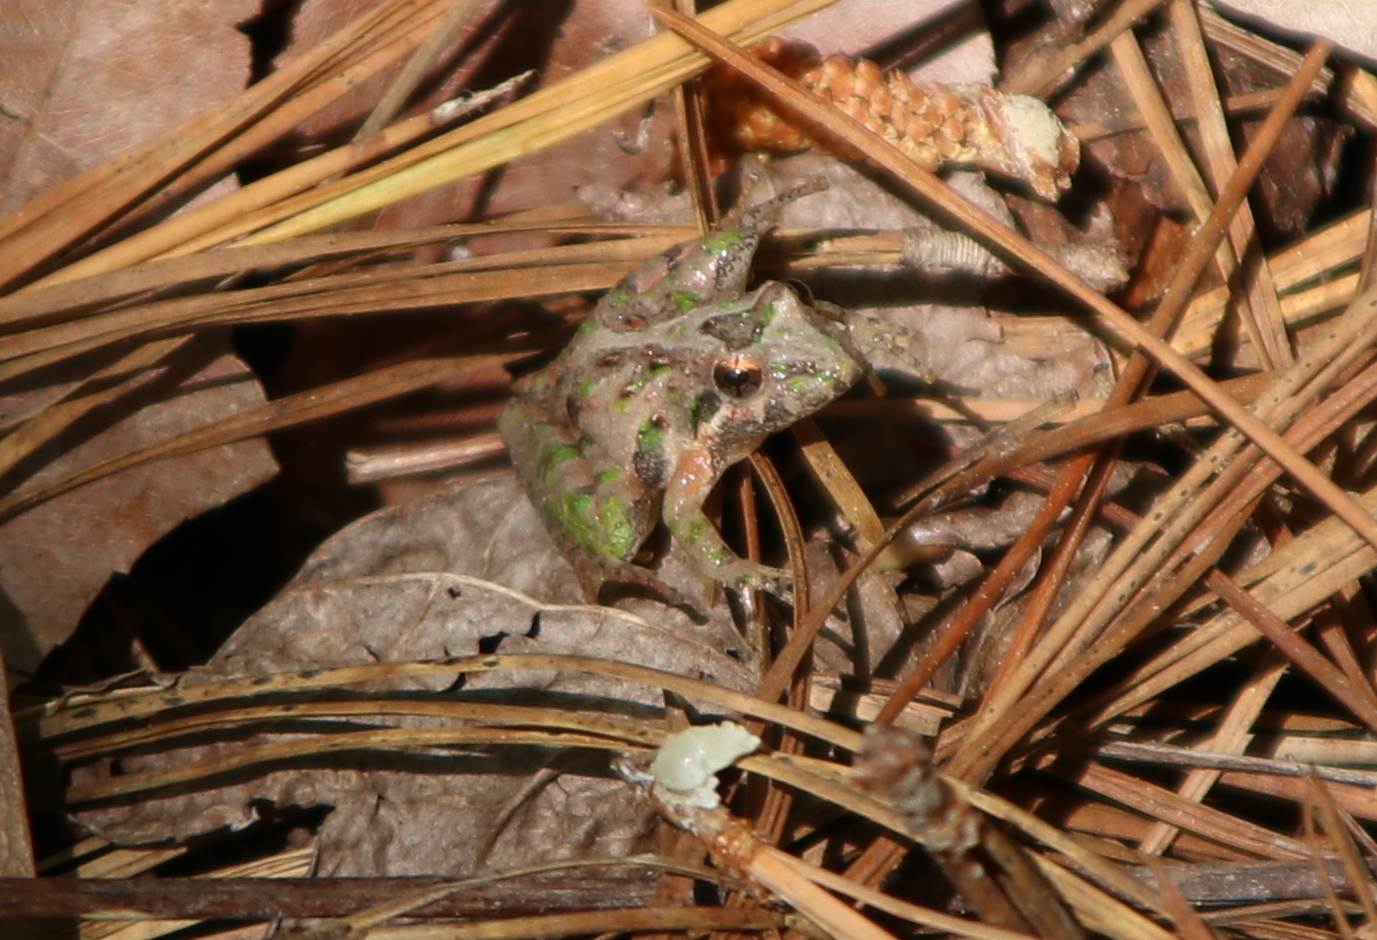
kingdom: Animalia
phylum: Chordata
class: Amphibia
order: Anura
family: Hylidae
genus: Acris
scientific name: Acris gryllus
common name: Southern cricket frog
